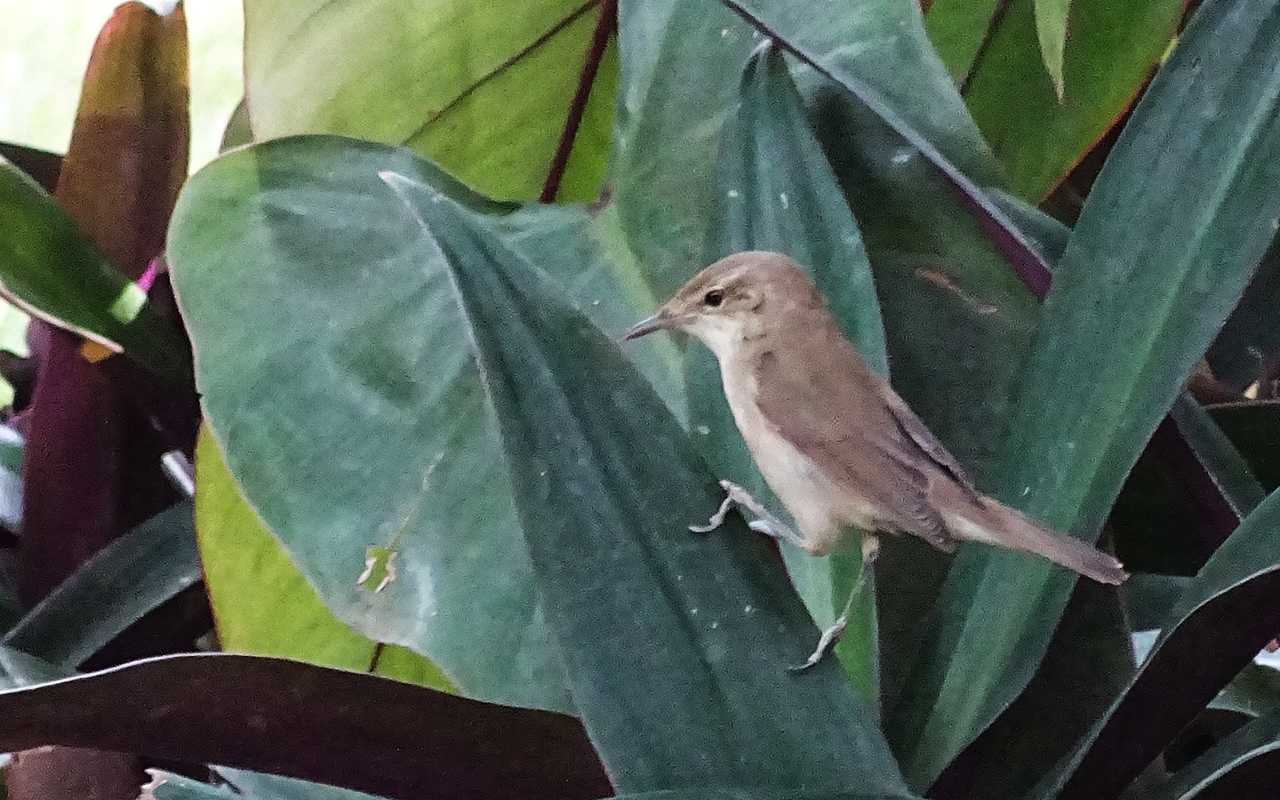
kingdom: Animalia
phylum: Chordata
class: Aves
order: Passeriformes
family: Acrocephalidae
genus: Acrocephalus
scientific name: Acrocephalus dumetorum
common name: Blyth's reed warbler
